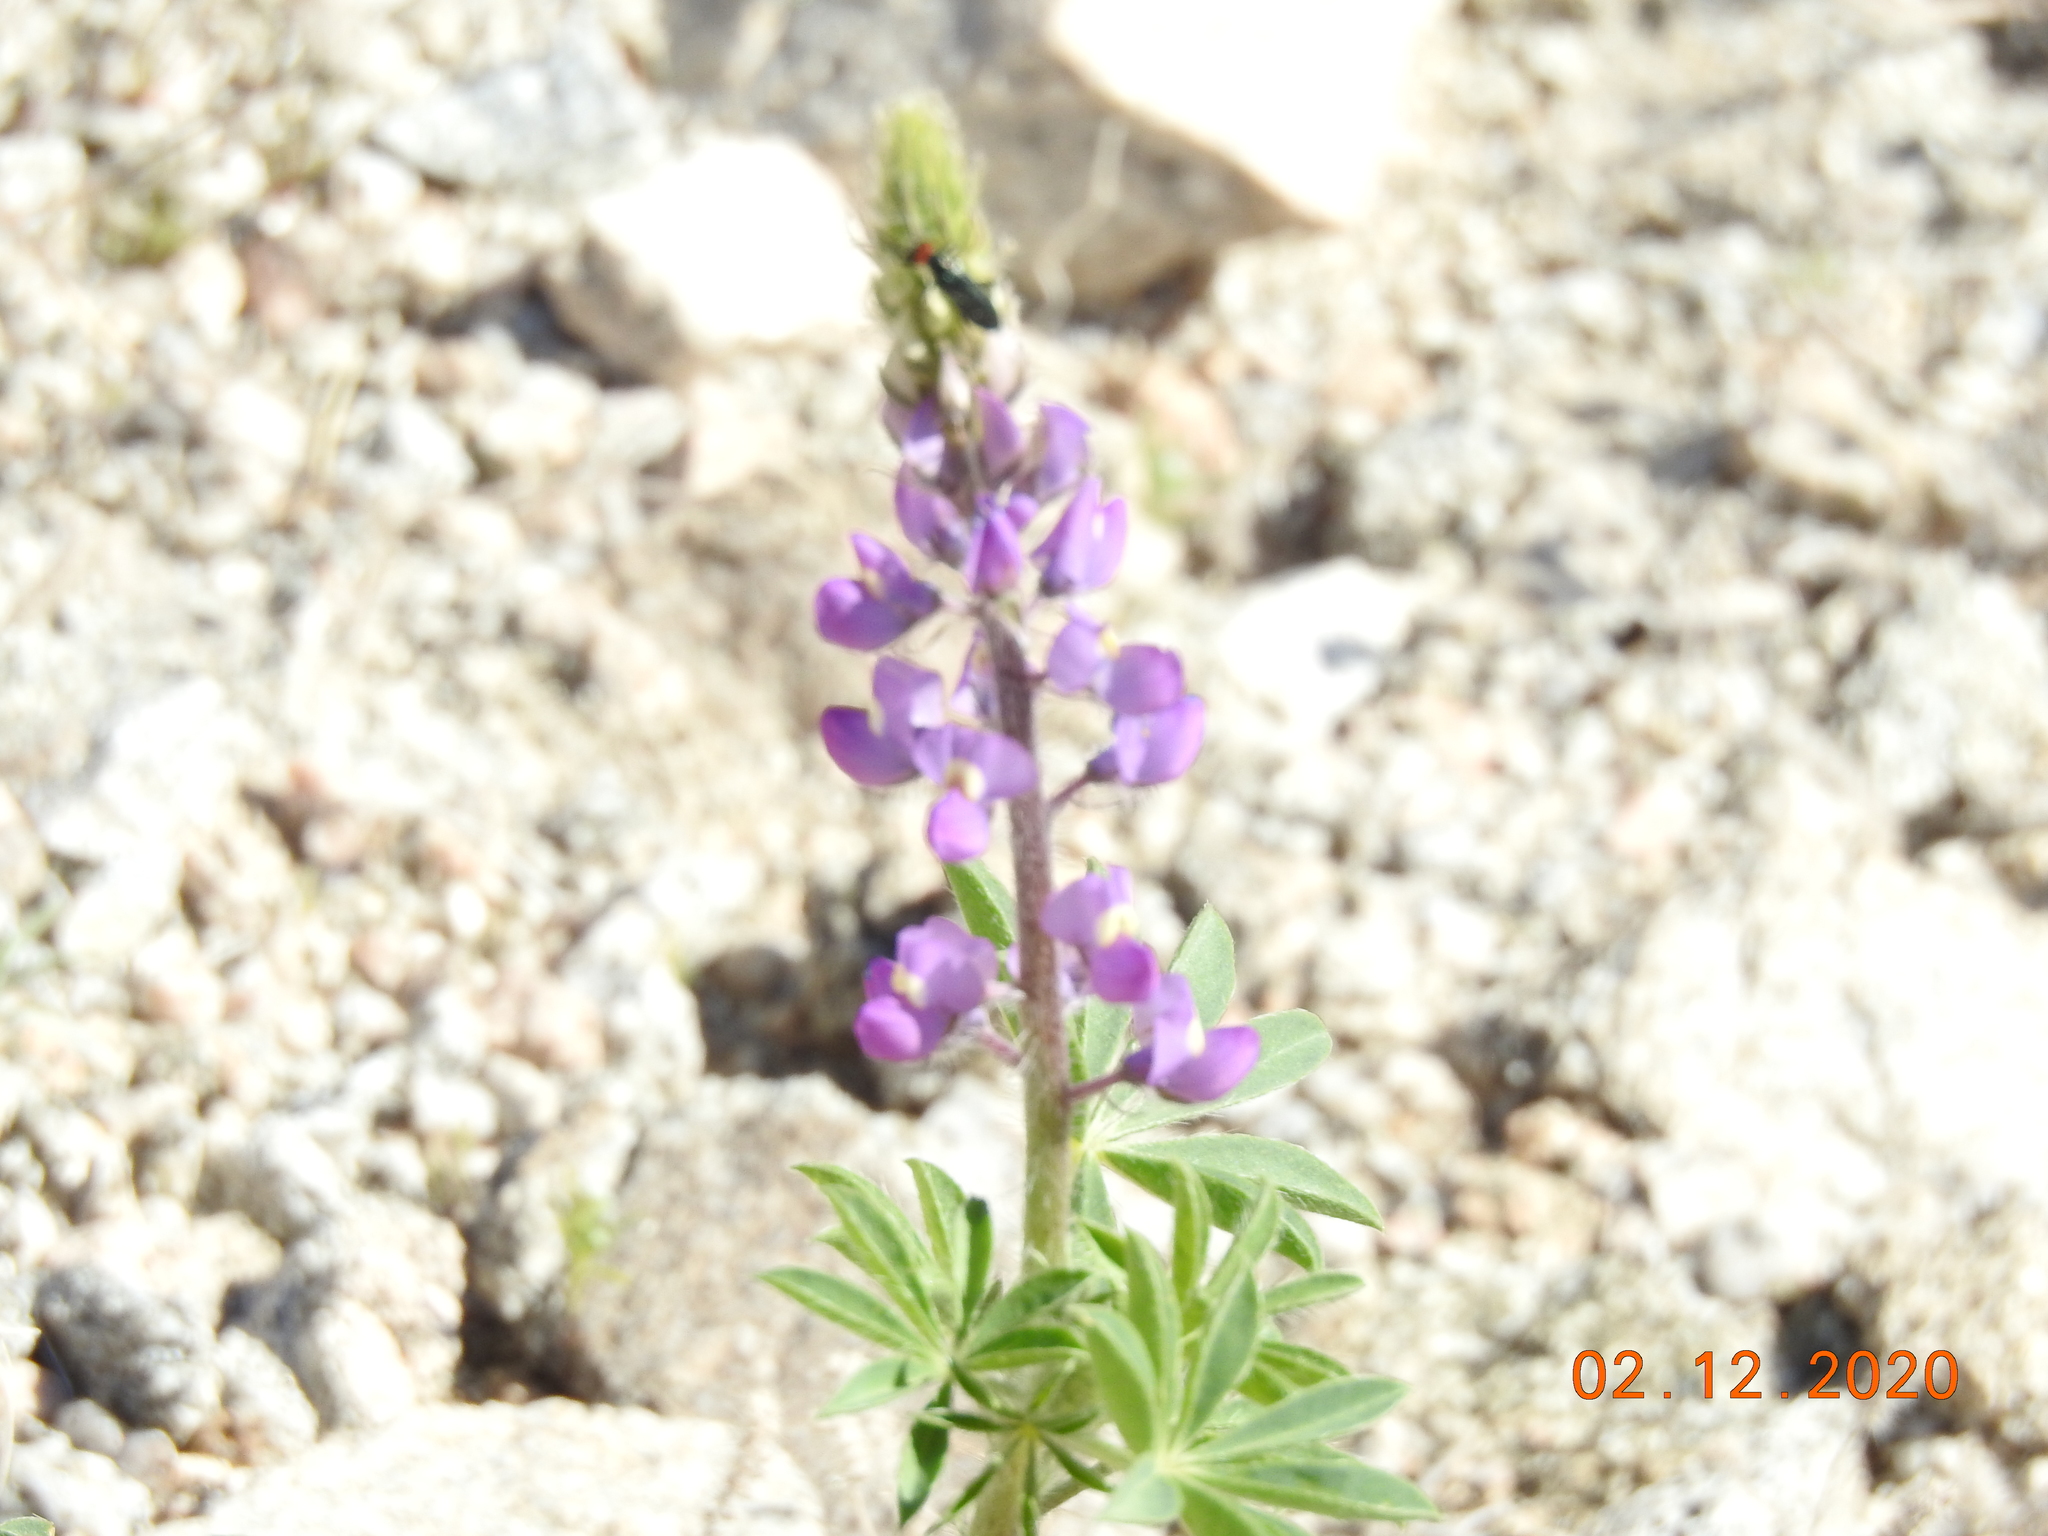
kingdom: Plantae
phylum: Tracheophyta
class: Magnoliopsida
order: Fabales
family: Fabaceae
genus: Lupinus
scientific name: Lupinus arizonicus
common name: Arizona lupine
